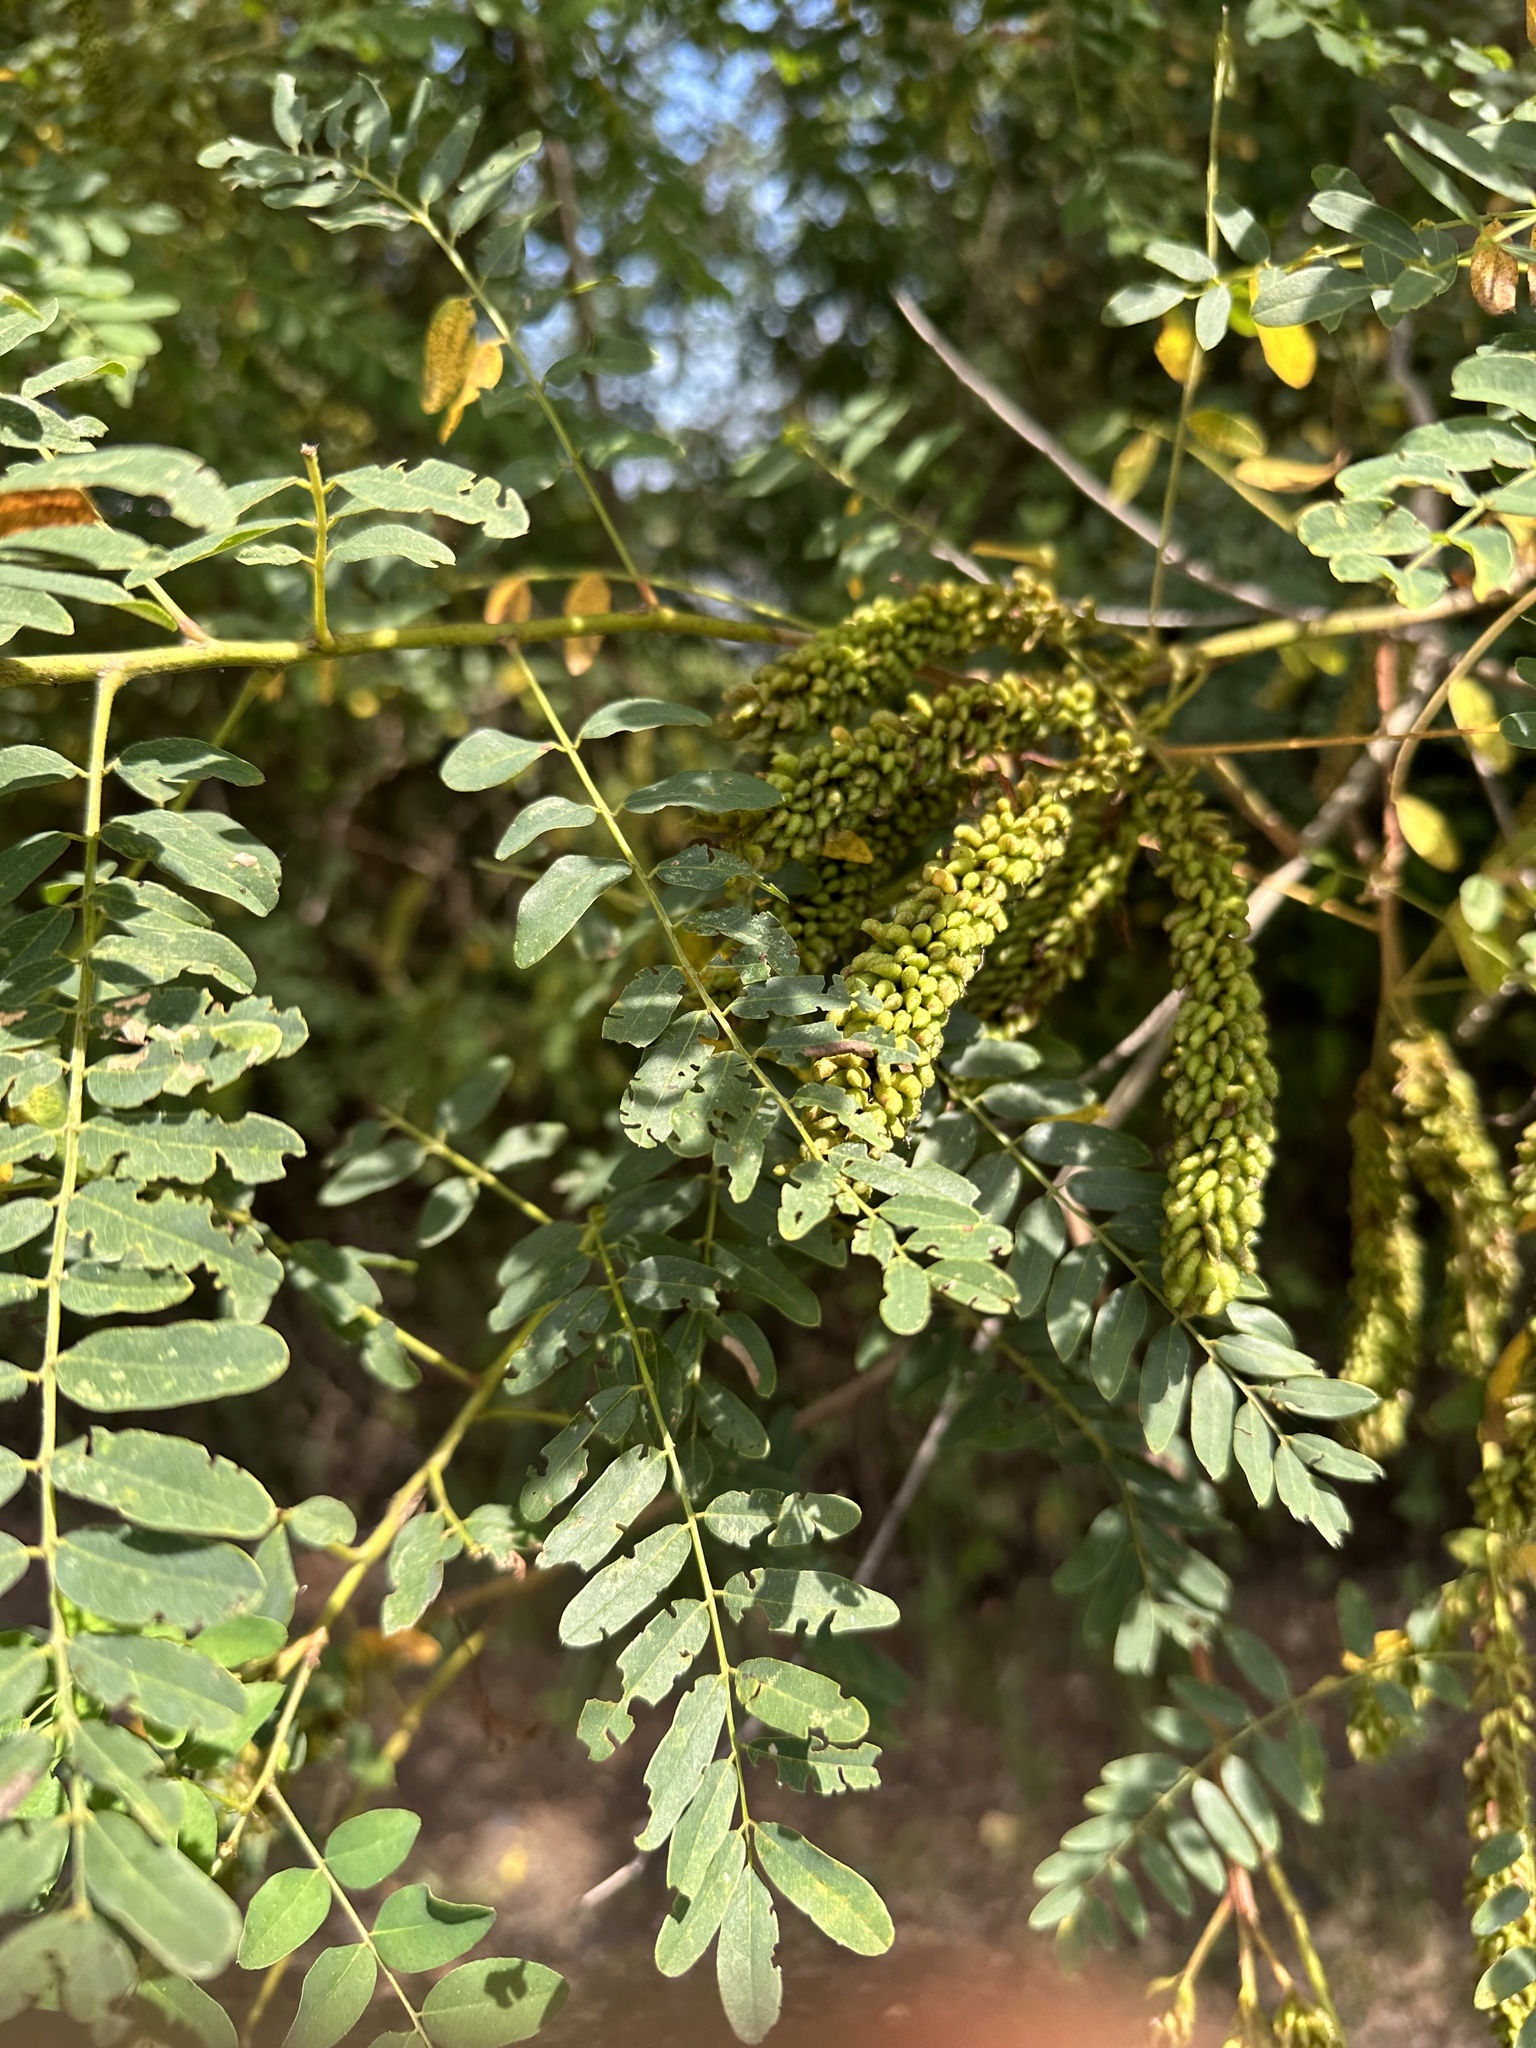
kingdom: Plantae
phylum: Tracheophyta
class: Magnoliopsida
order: Fabales
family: Fabaceae
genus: Amorpha
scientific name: Amorpha fruticosa
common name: False indigo
